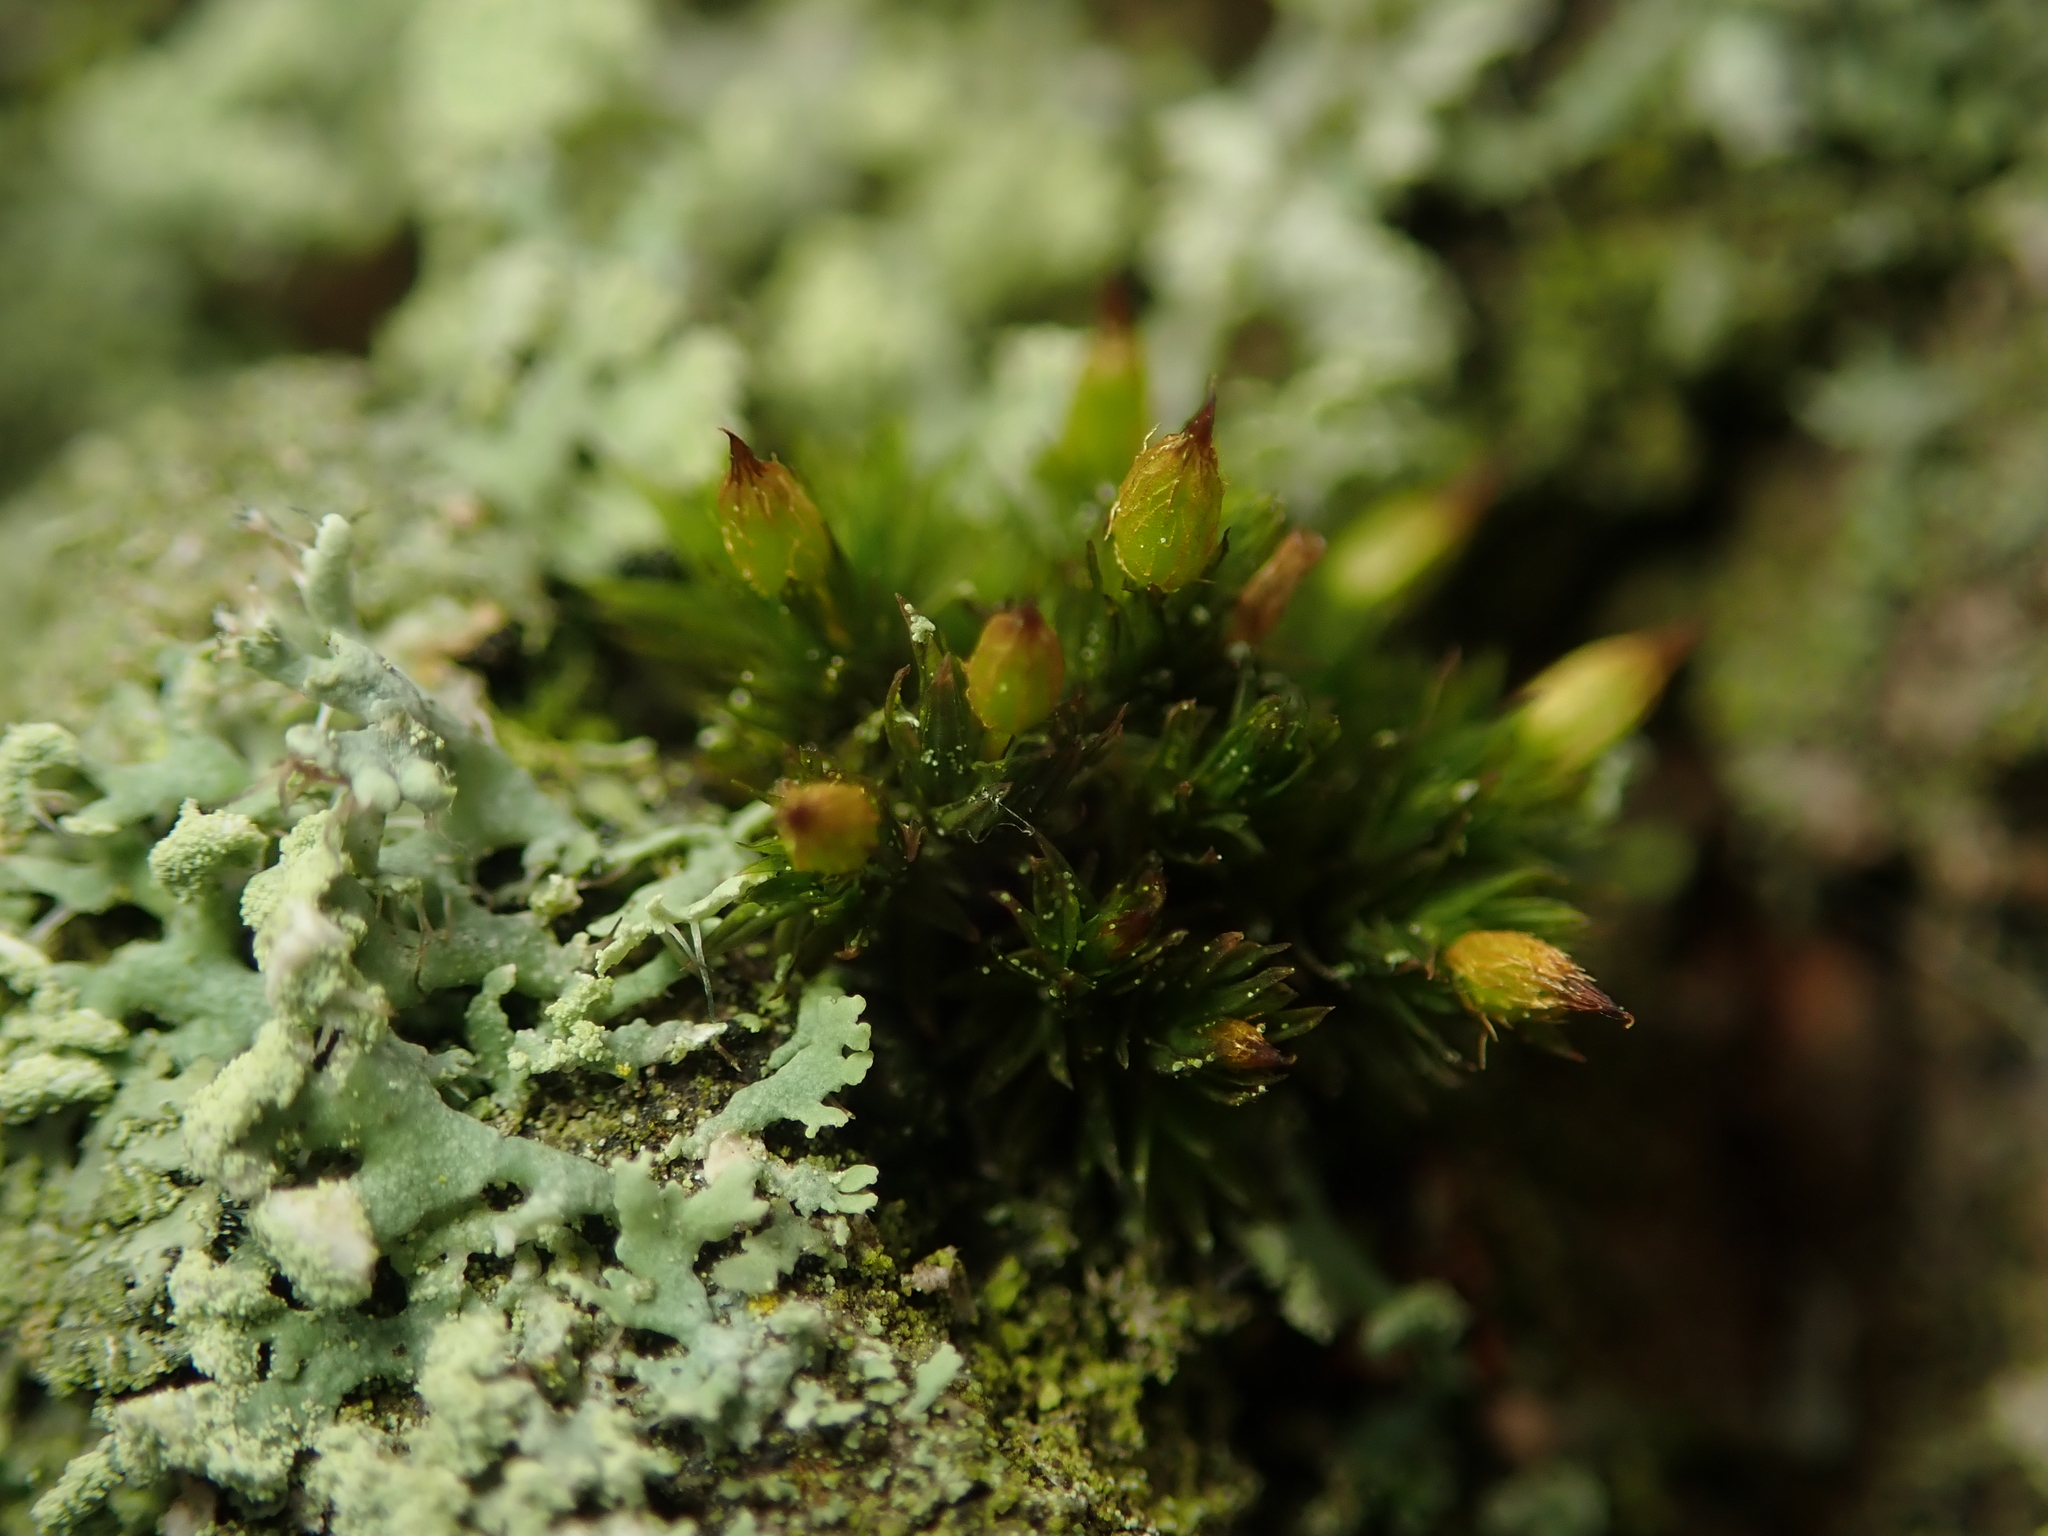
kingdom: Plantae
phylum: Bryophyta
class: Bryopsida
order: Orthotrichales
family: Orthotrichaceae
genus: Orthotrichum
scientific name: Orthotrichum anomalum
